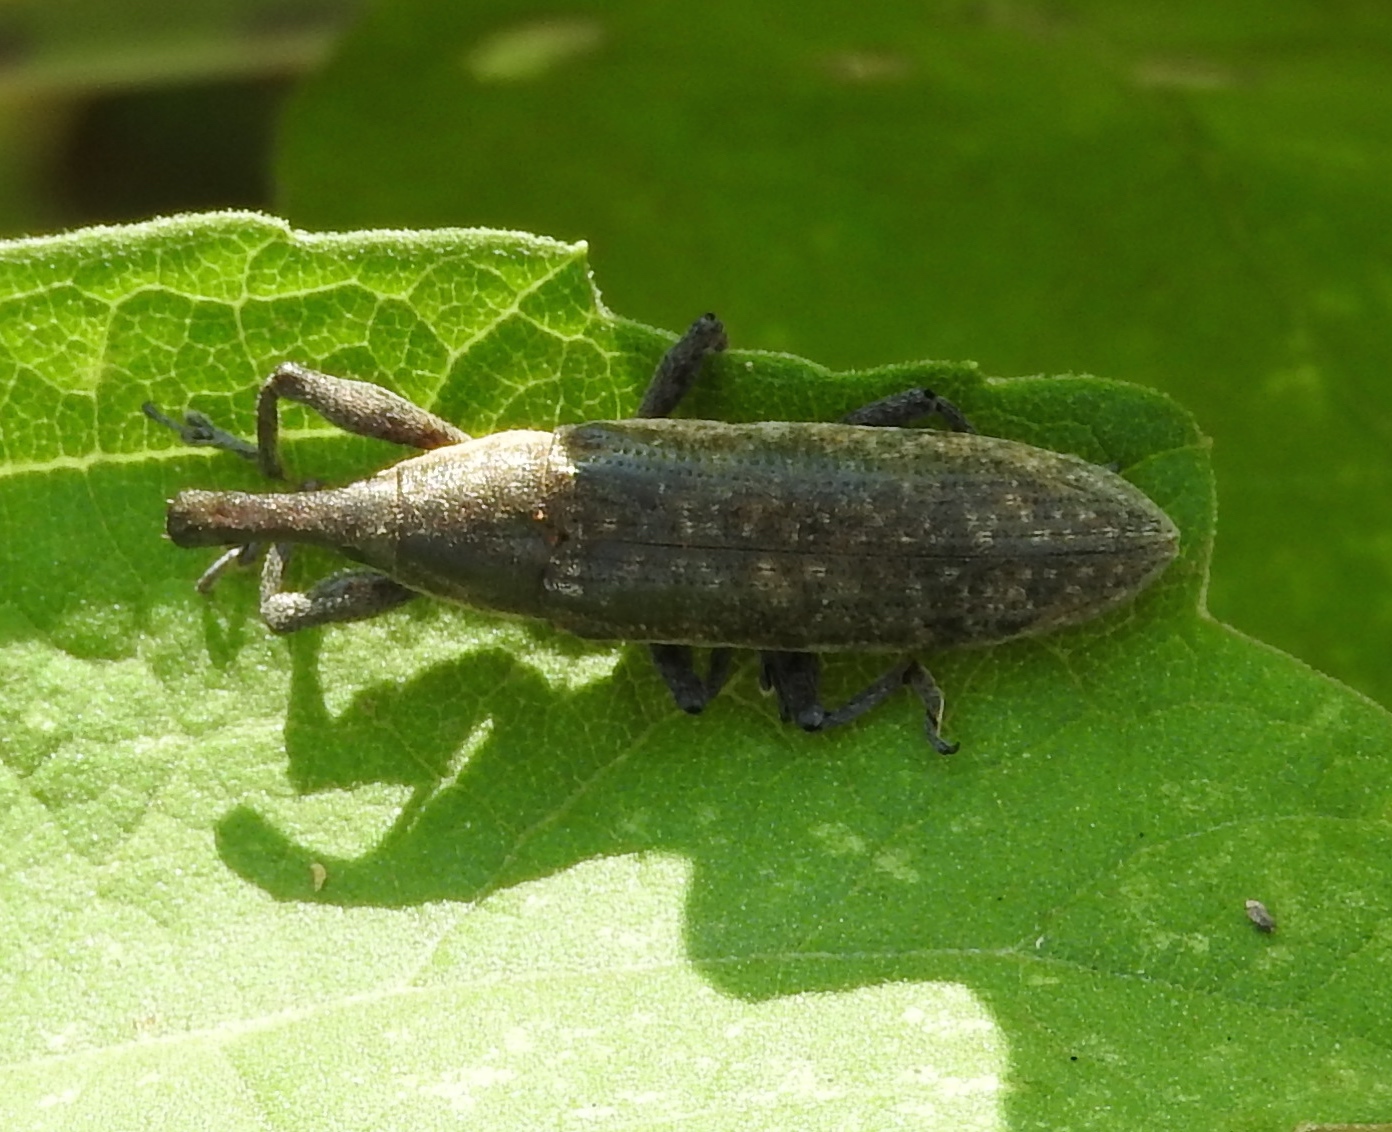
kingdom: Animalia
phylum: Arthropoda
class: Insecta
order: Coleoptera
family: Curculionidae
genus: Lixus
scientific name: Lixus
